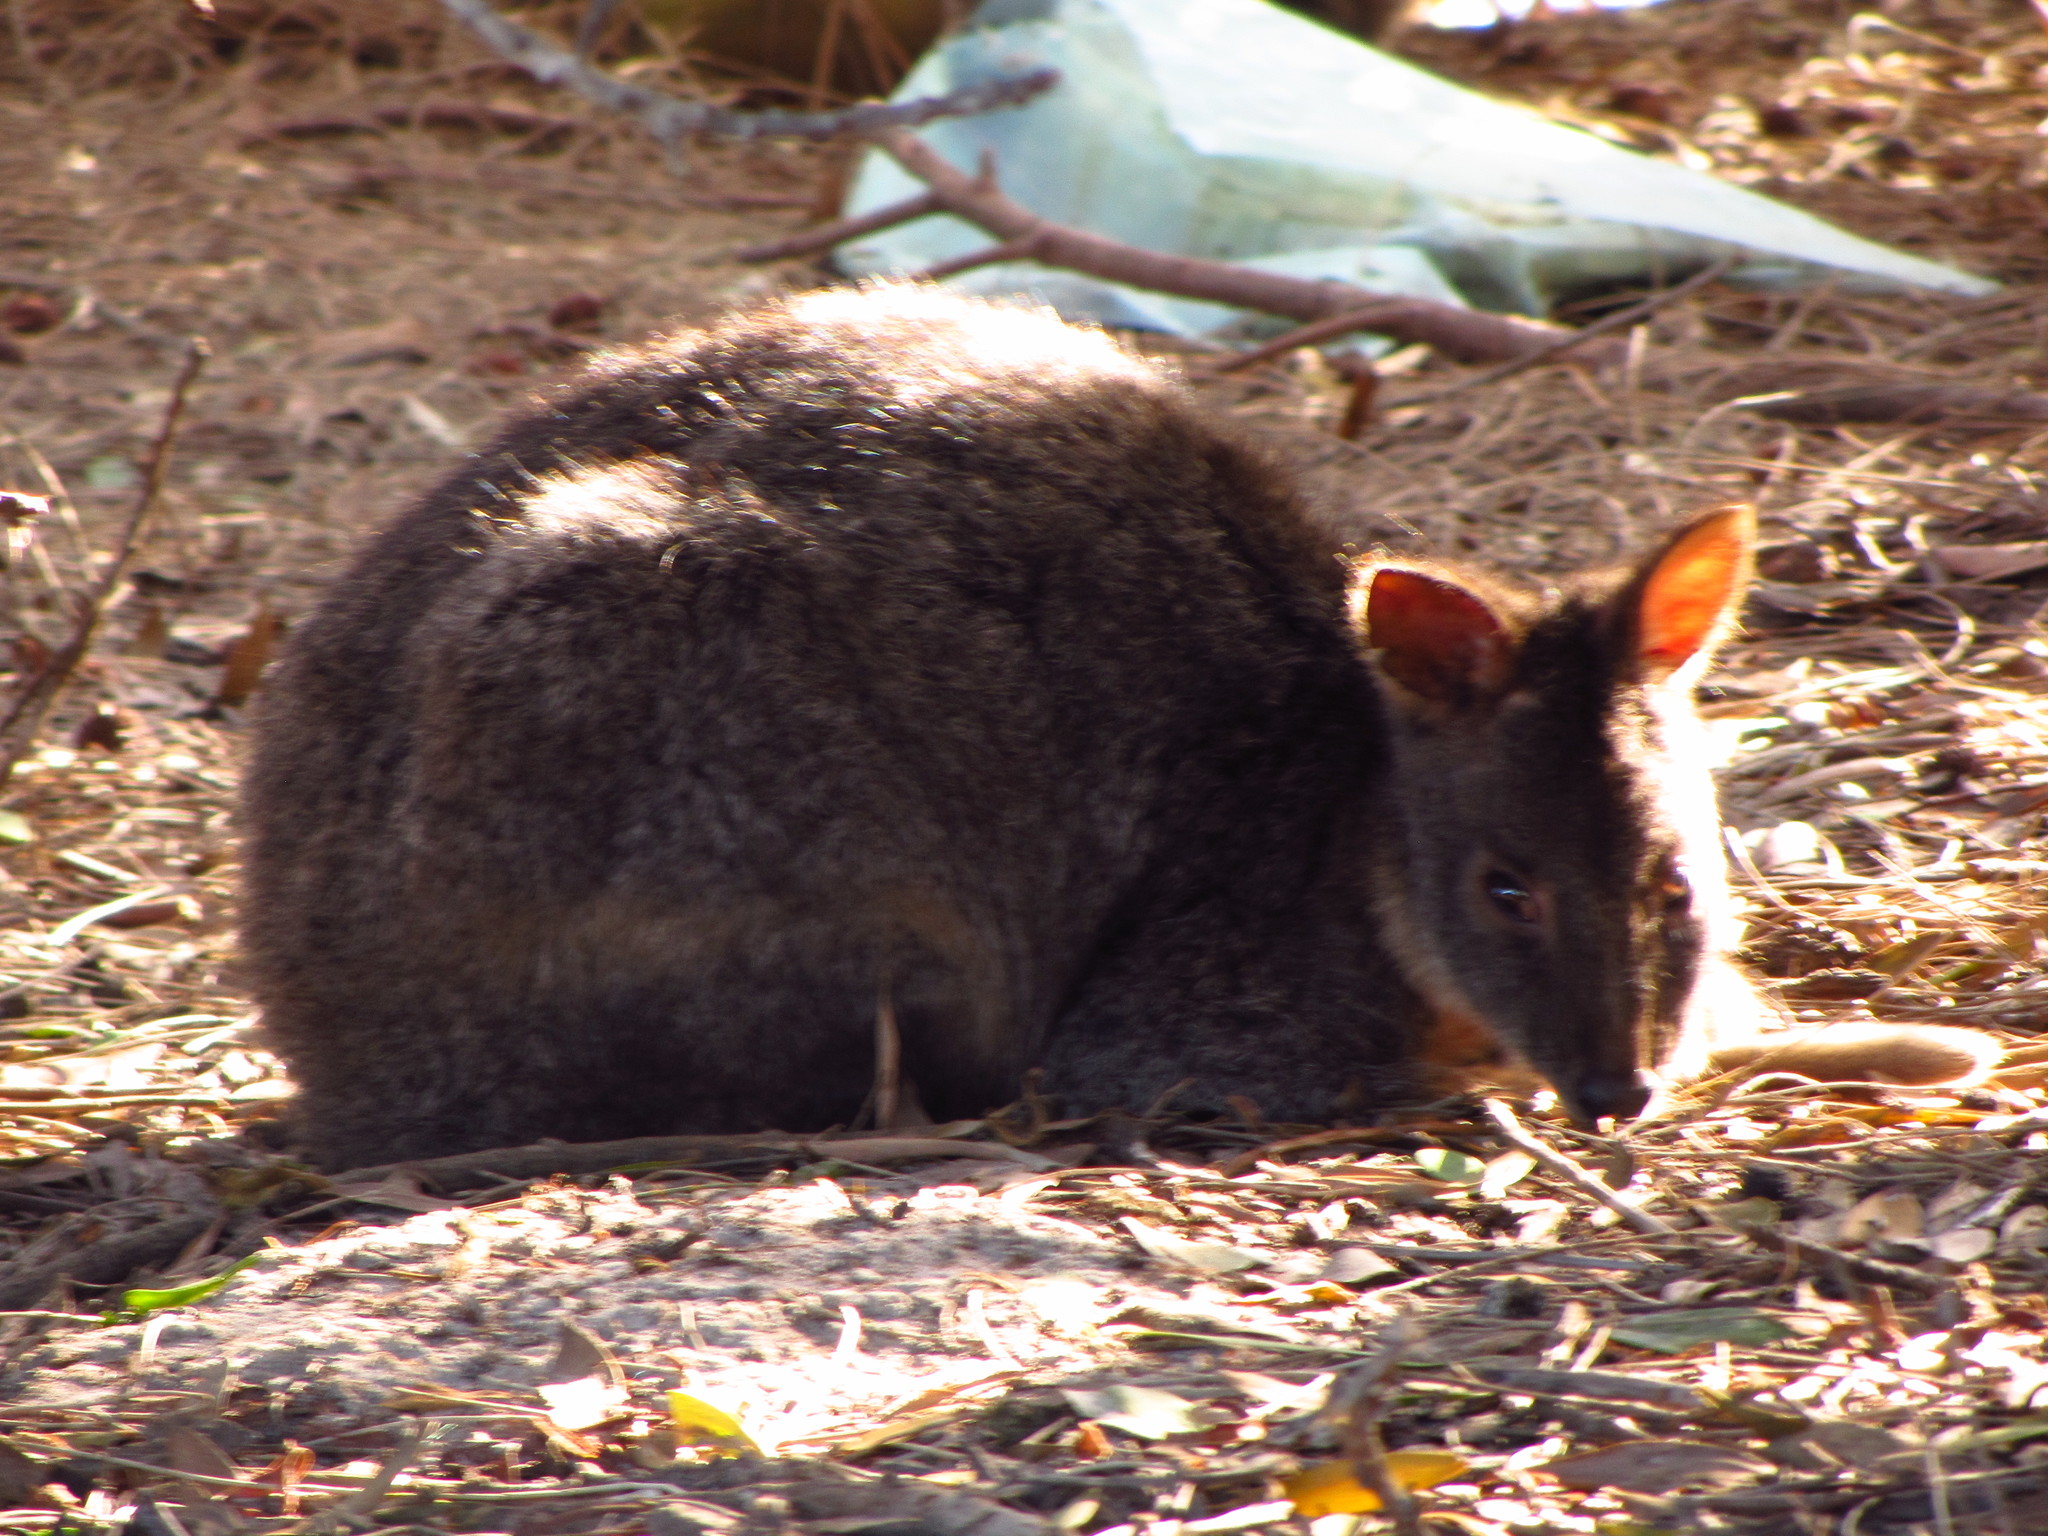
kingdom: Animalia
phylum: Chordata
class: Mammalia
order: Diprotodontia
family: Macropodidae
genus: Thylogale
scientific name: Thylogale billardierii
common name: Tasmanian pademelon
